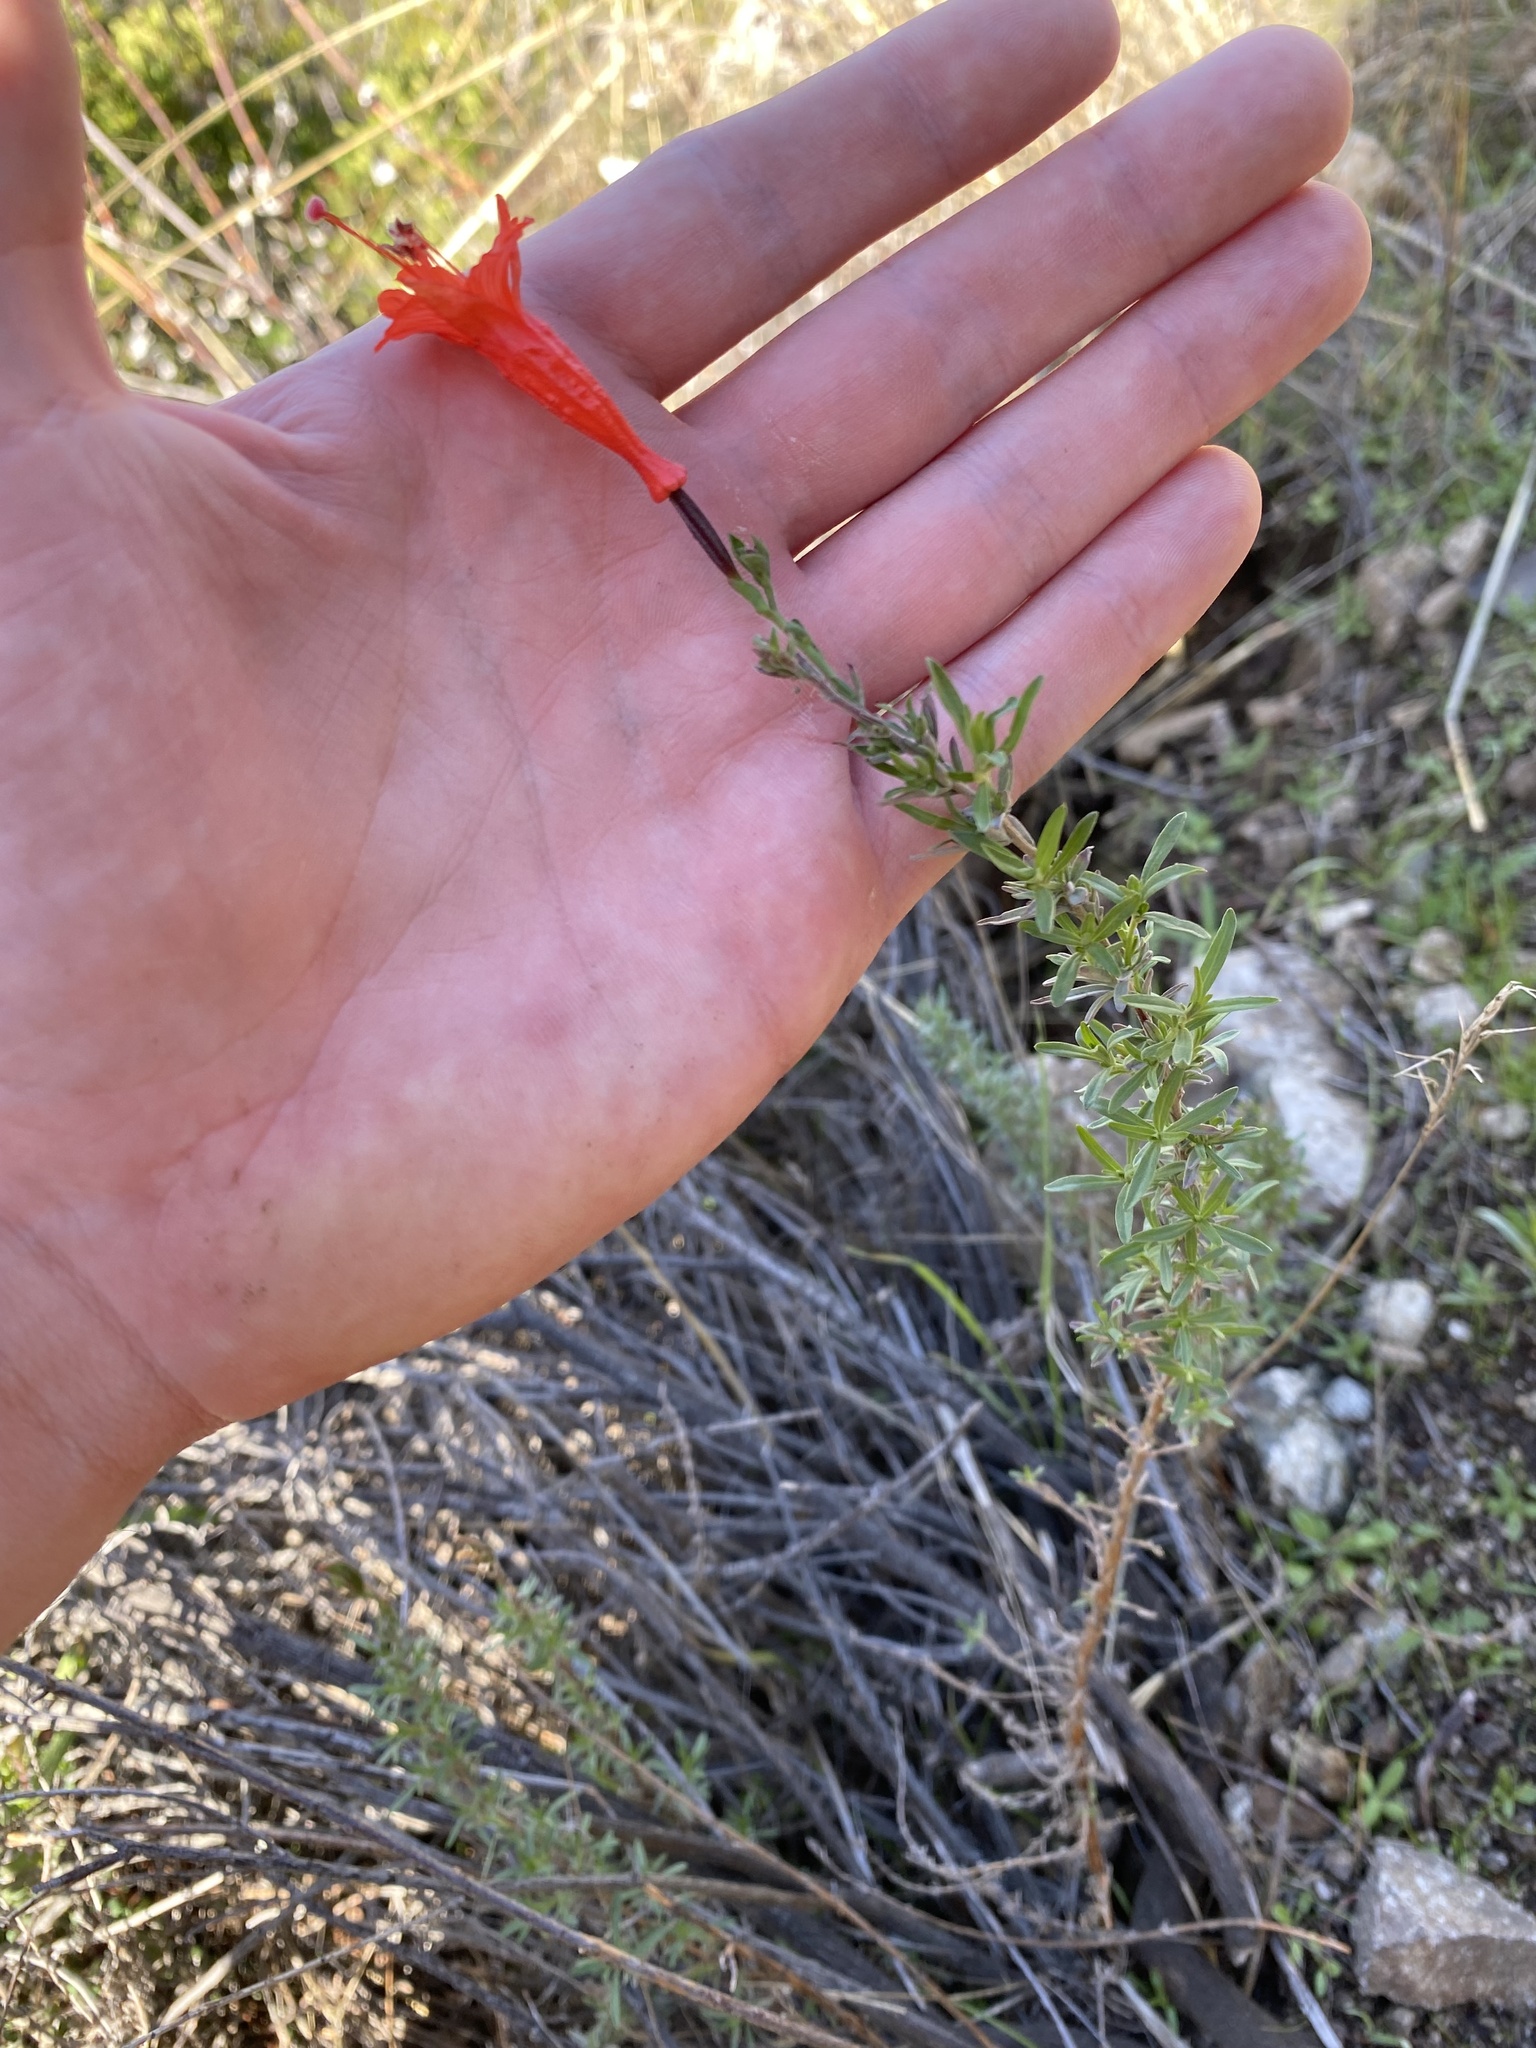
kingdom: Plantae
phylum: Tracheophyta
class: Magnoliopsida
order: Myrtales
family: Onagraceae
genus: Epilobium
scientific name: Epilobium canum
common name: California-fuchsia
